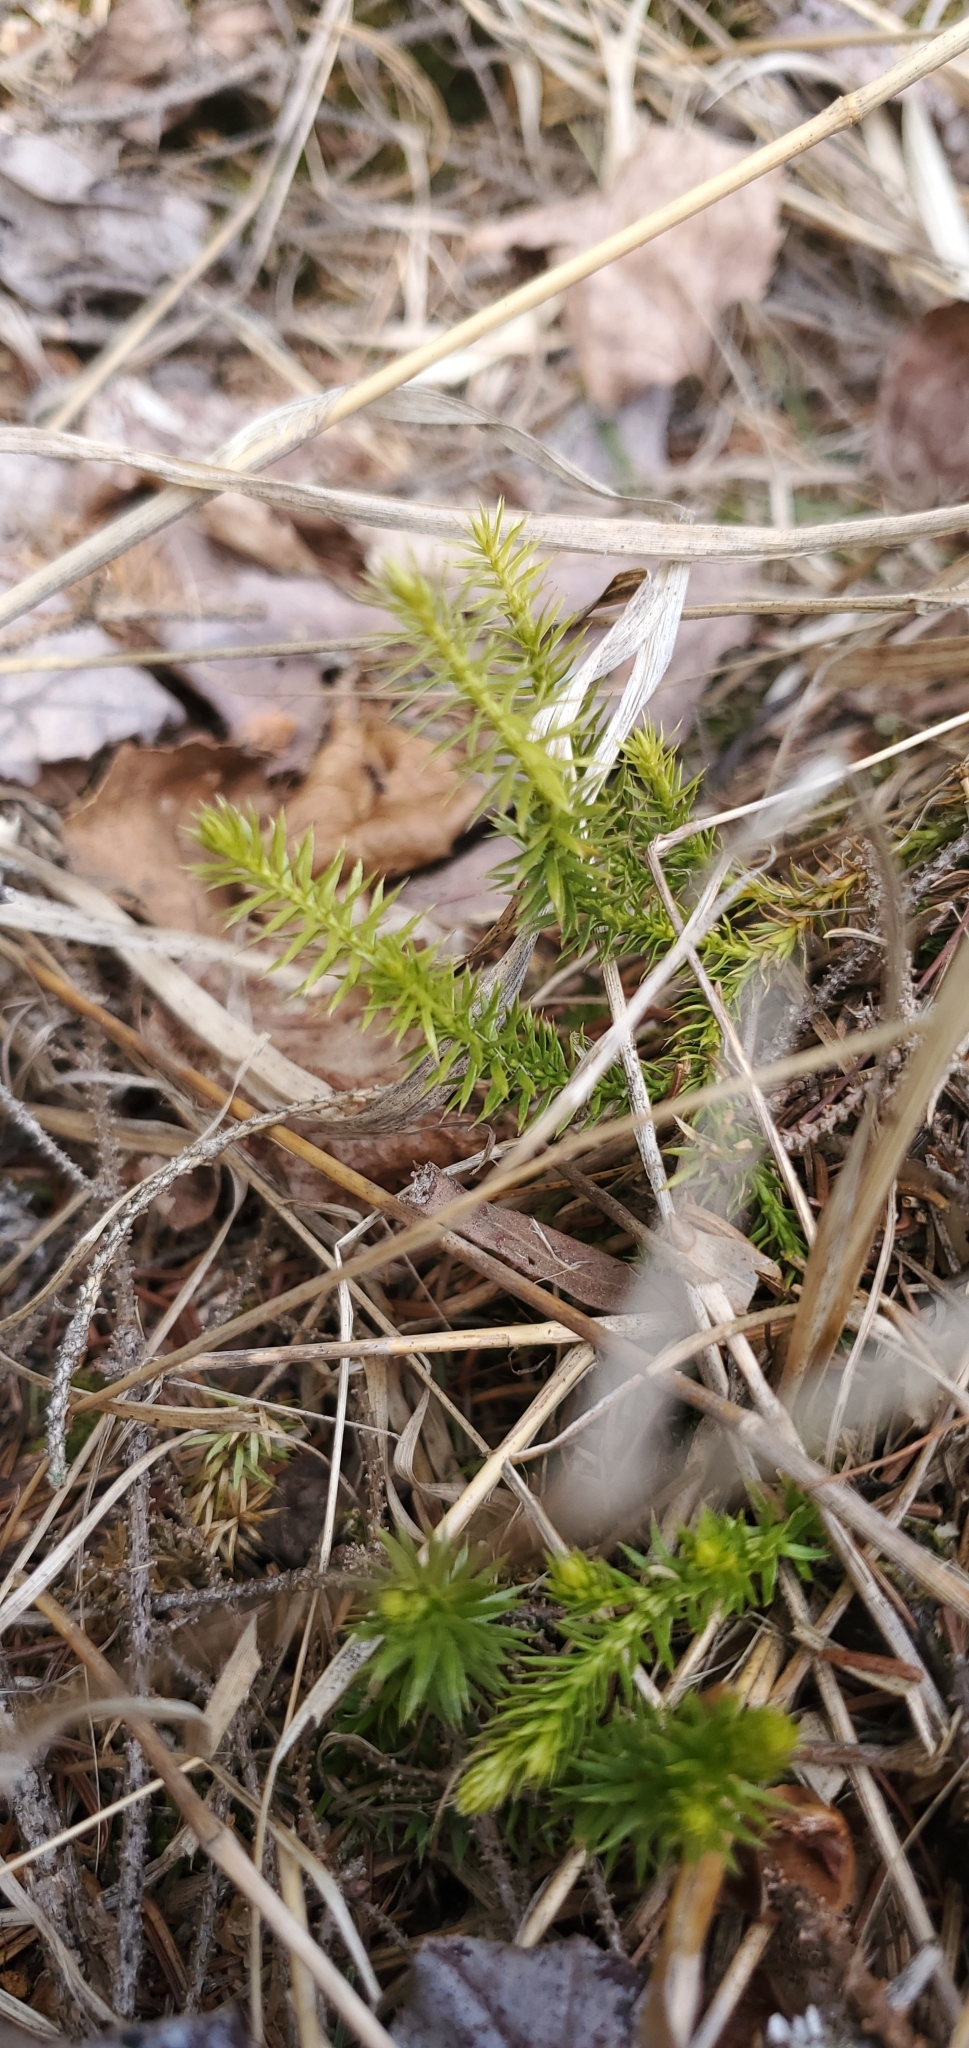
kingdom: Plantae
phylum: Tracheophyta
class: Lycopodiopsida
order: Lycopodiales
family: Lycopodiaceae
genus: Spinulum
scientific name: Spinulum annotinum
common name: Interrupted club-moss
